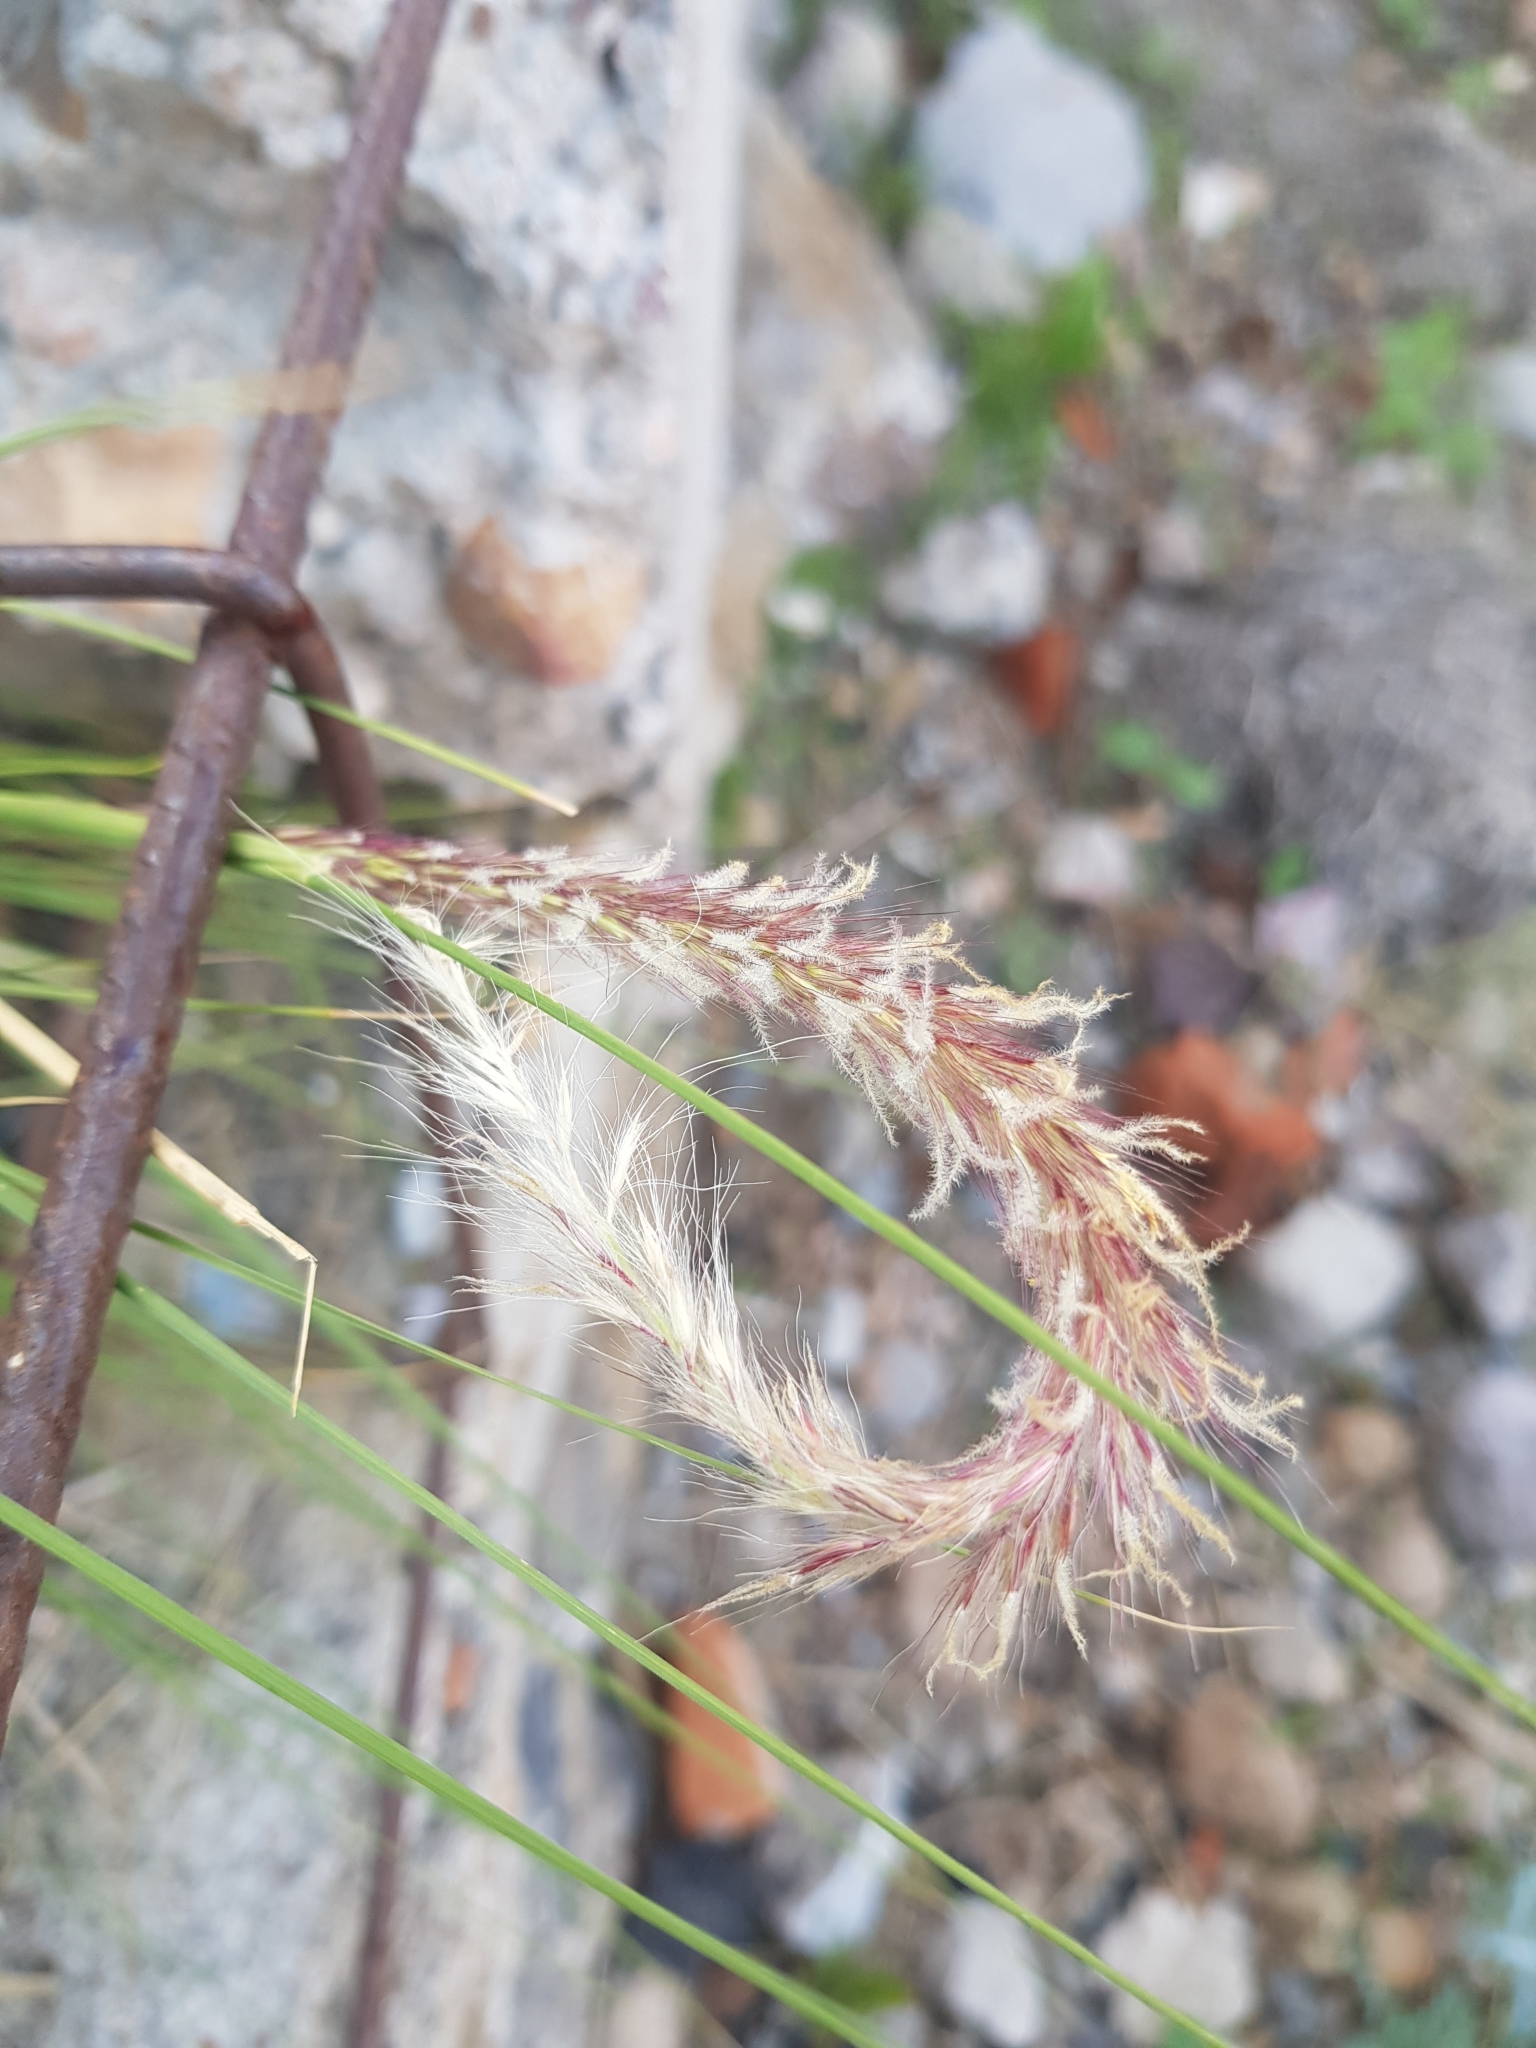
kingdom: Plantae
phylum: Tracheophyta
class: Liliopsida
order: Poales
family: Poaceae
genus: Cenchrus
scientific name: Cenchrus setaceus
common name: Crimson fountaingrass
